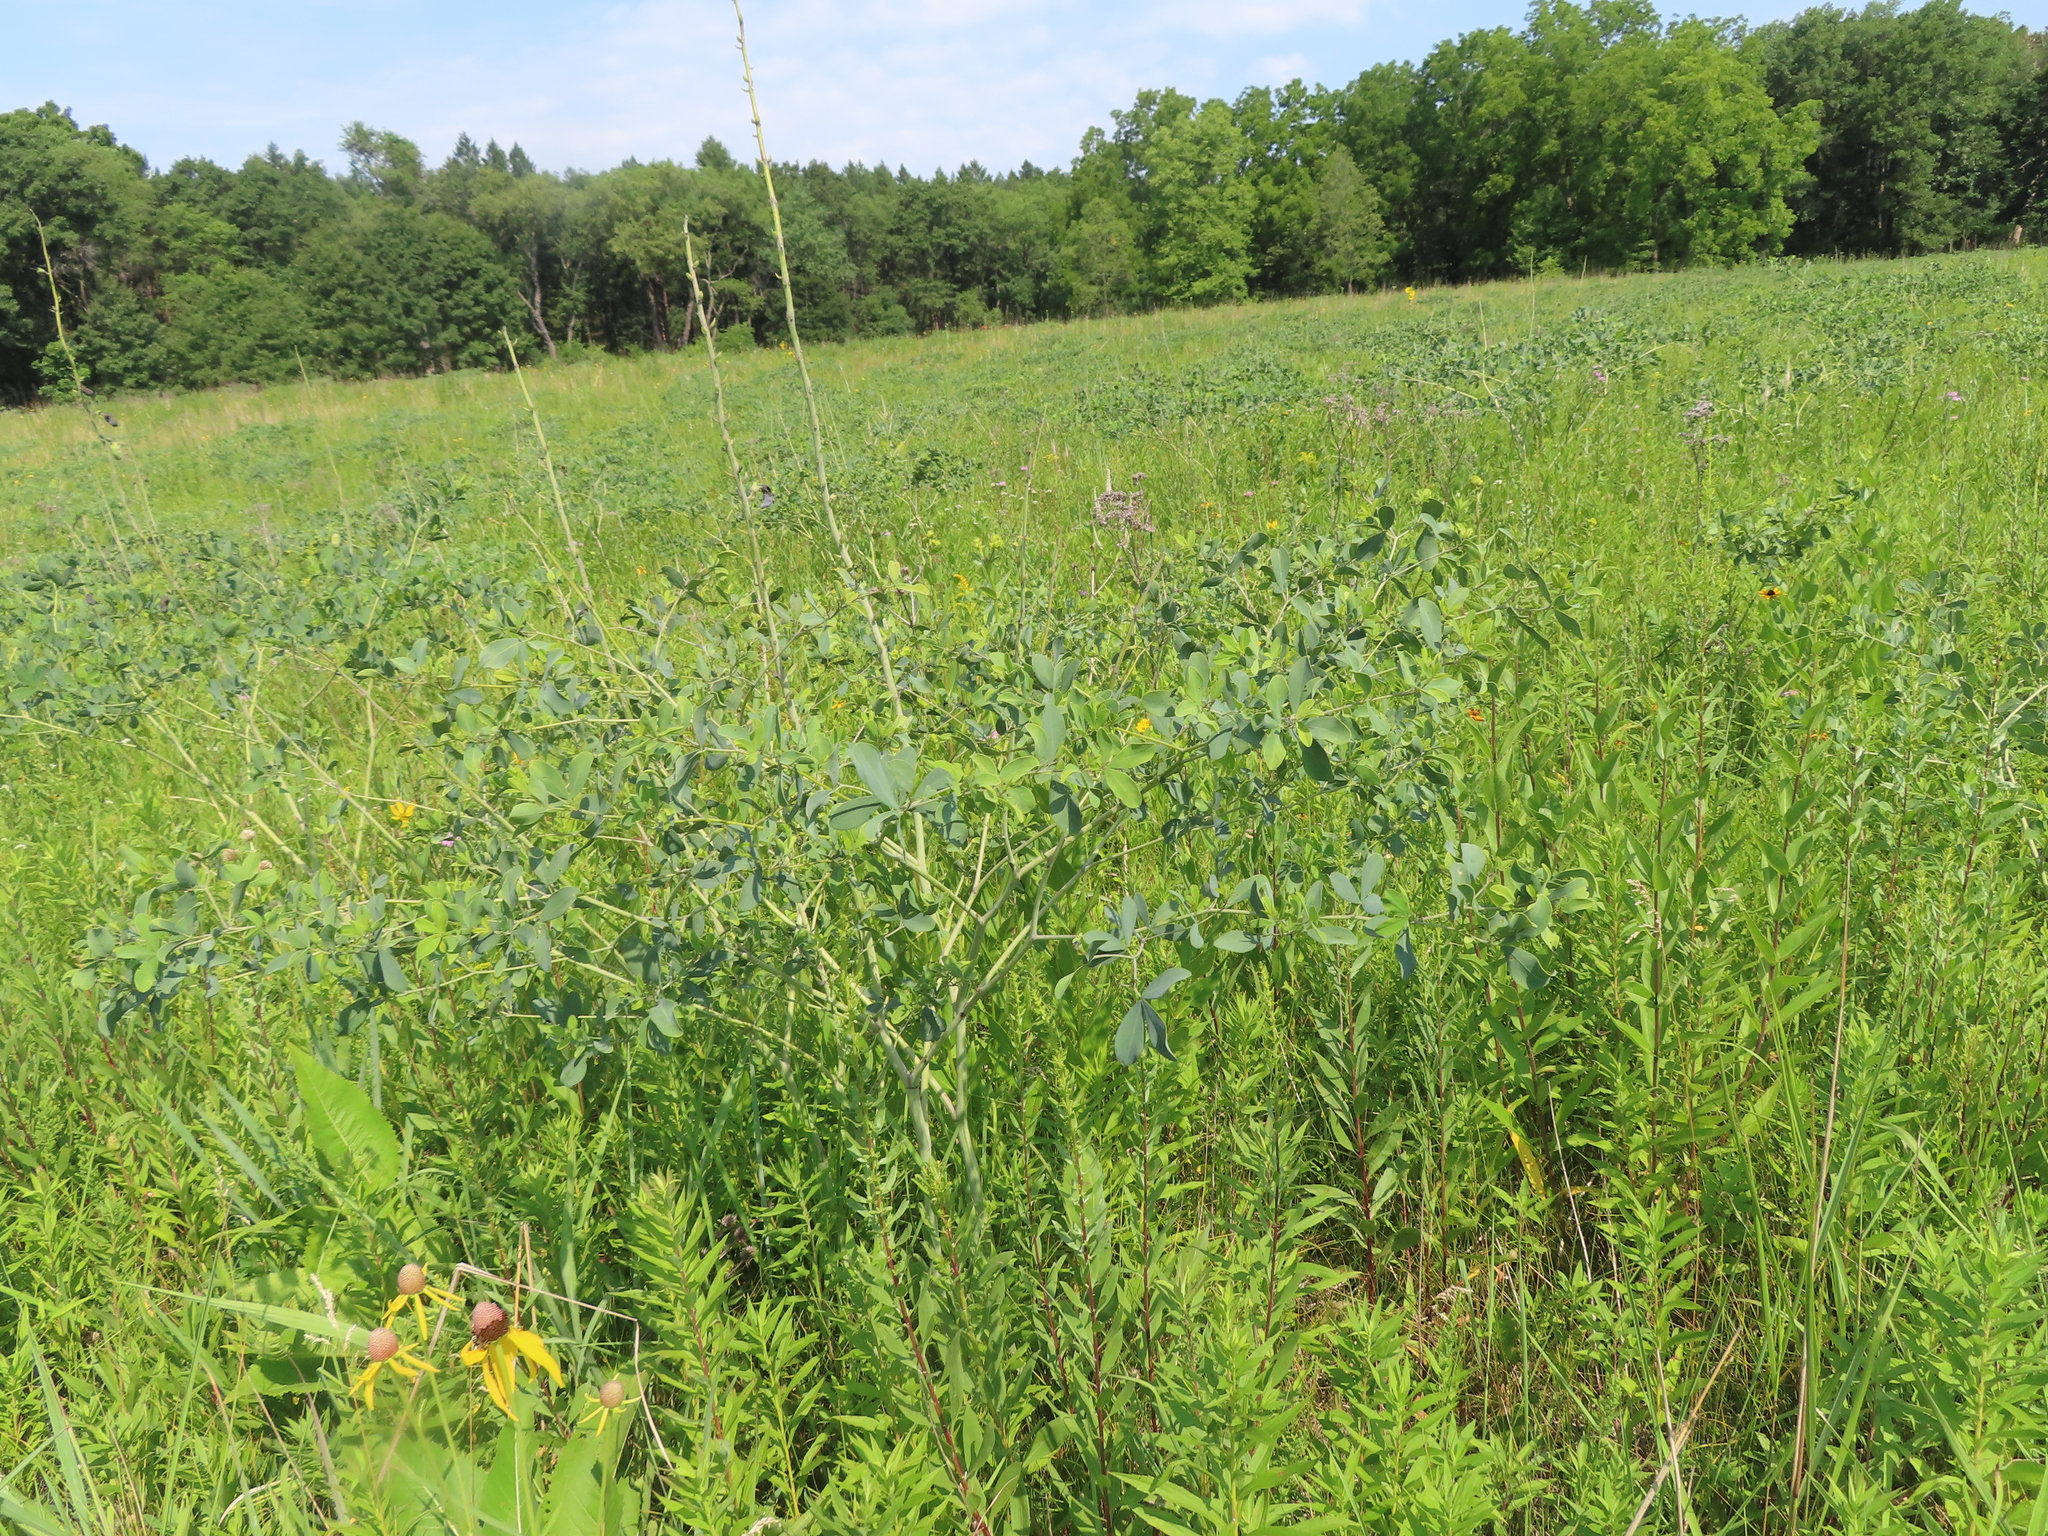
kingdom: Plantae
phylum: Tracheophyta
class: Magnoliopsida
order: Fabales
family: Fabaceae
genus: Baptisia
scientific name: Baptisia alba
